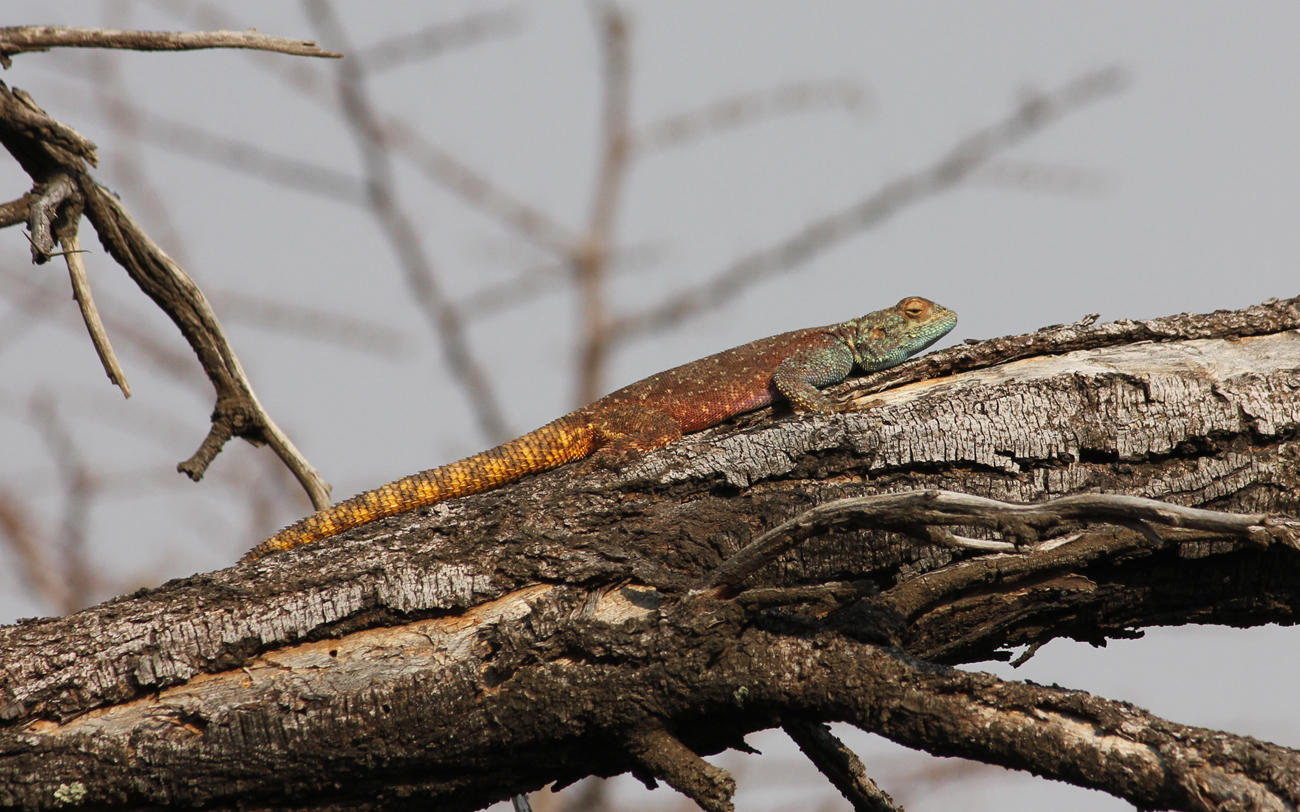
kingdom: Animalia
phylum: Chordata
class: Squamata
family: Agamidae
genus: Agama
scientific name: Agama atra
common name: Southern african rock agama
